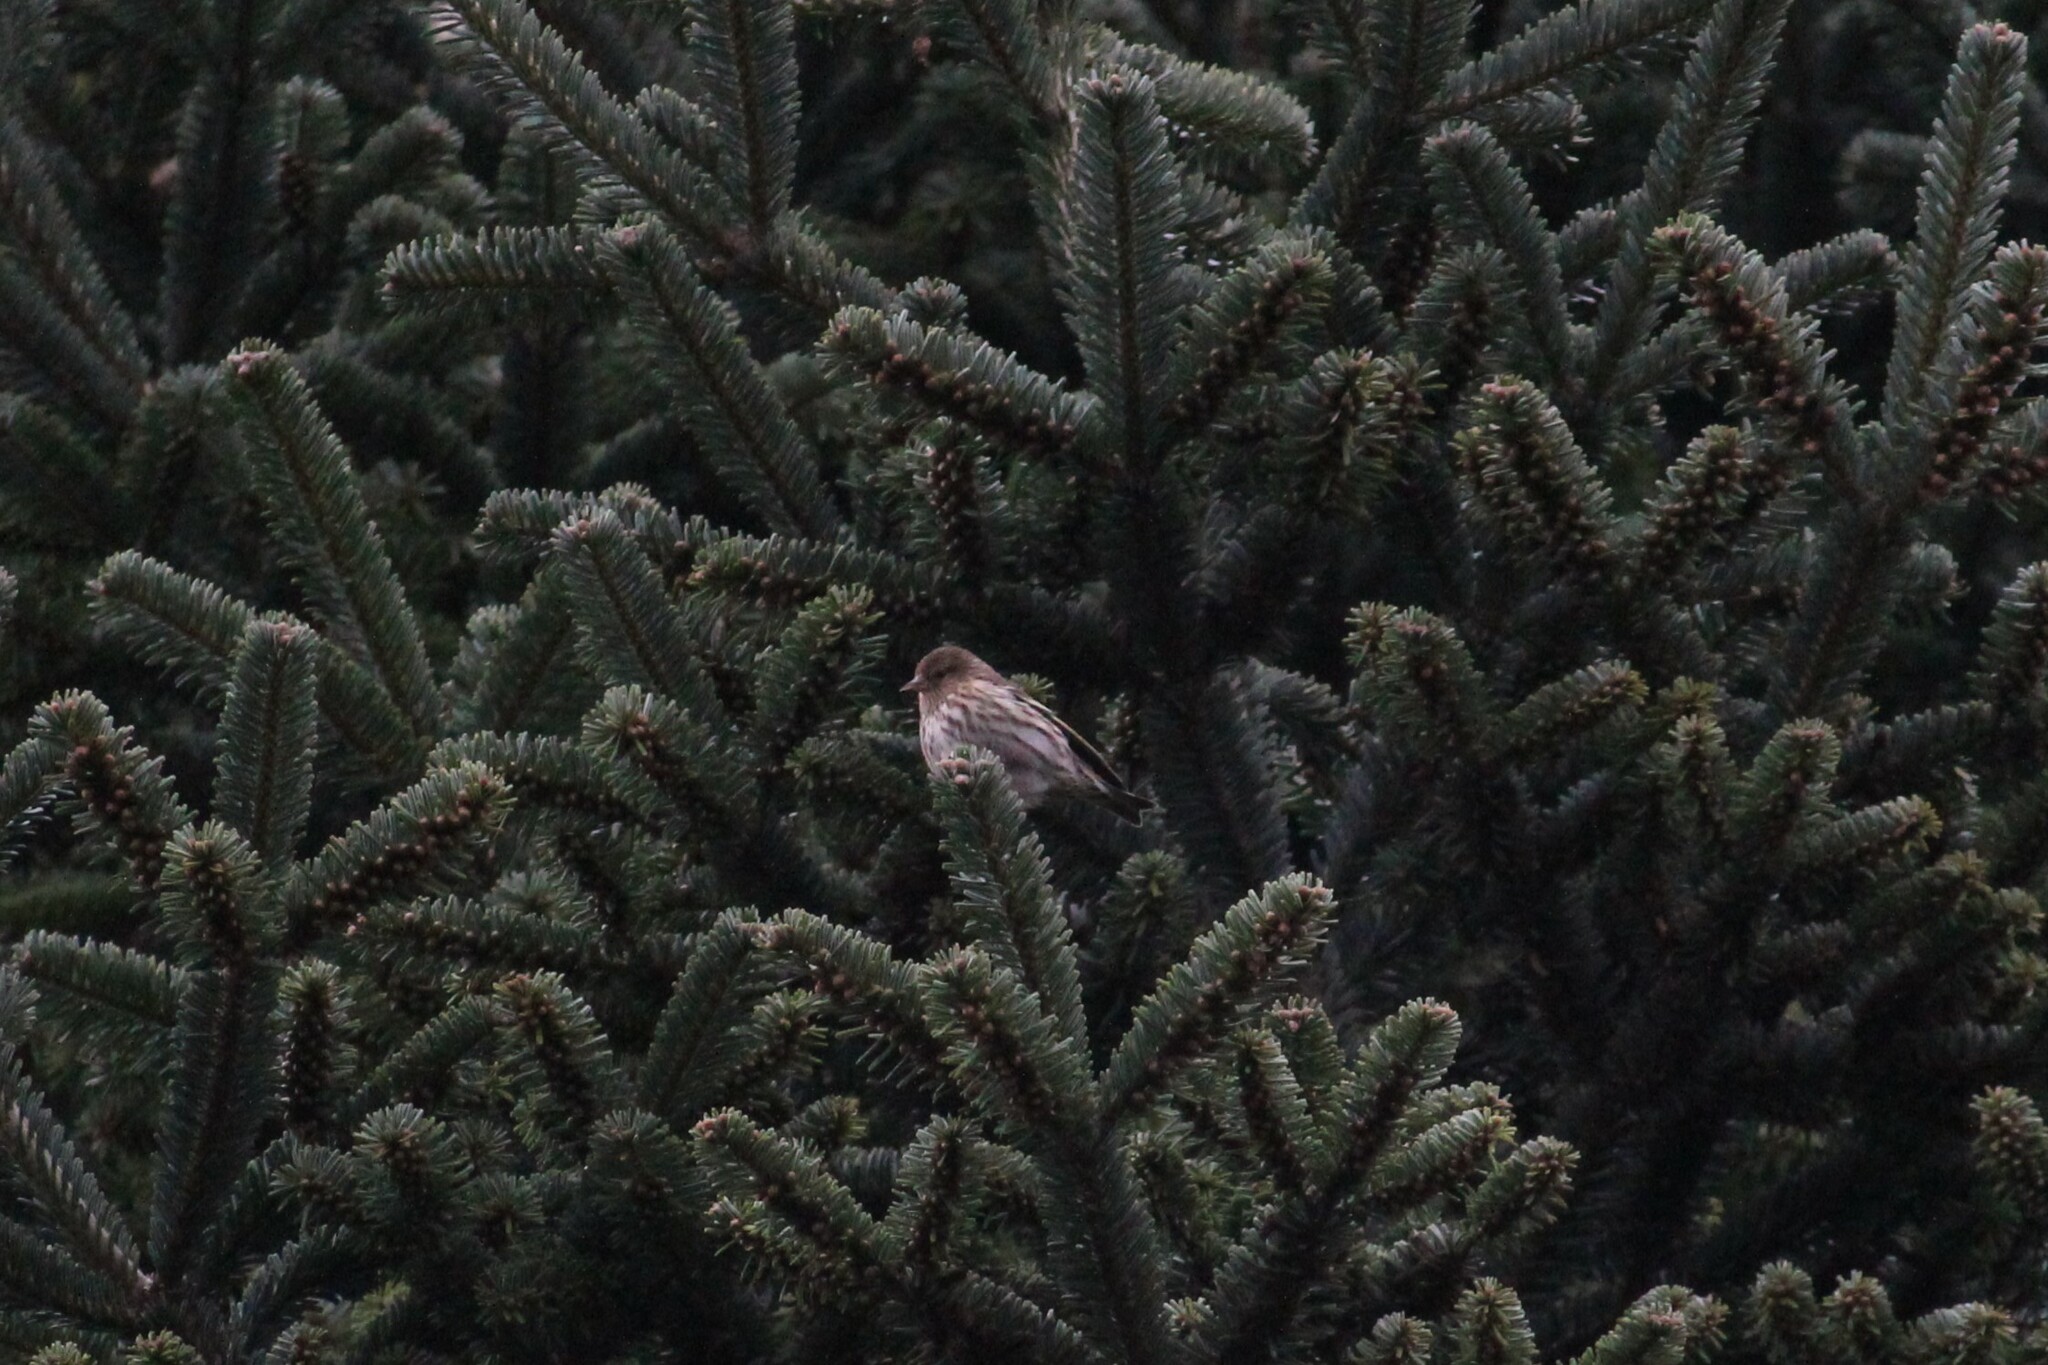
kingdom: Animalia
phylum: Chordata
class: Aves
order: Passeriformes
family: Fringillidae
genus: Spinus
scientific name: Spinus pinus
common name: Pine siskin
